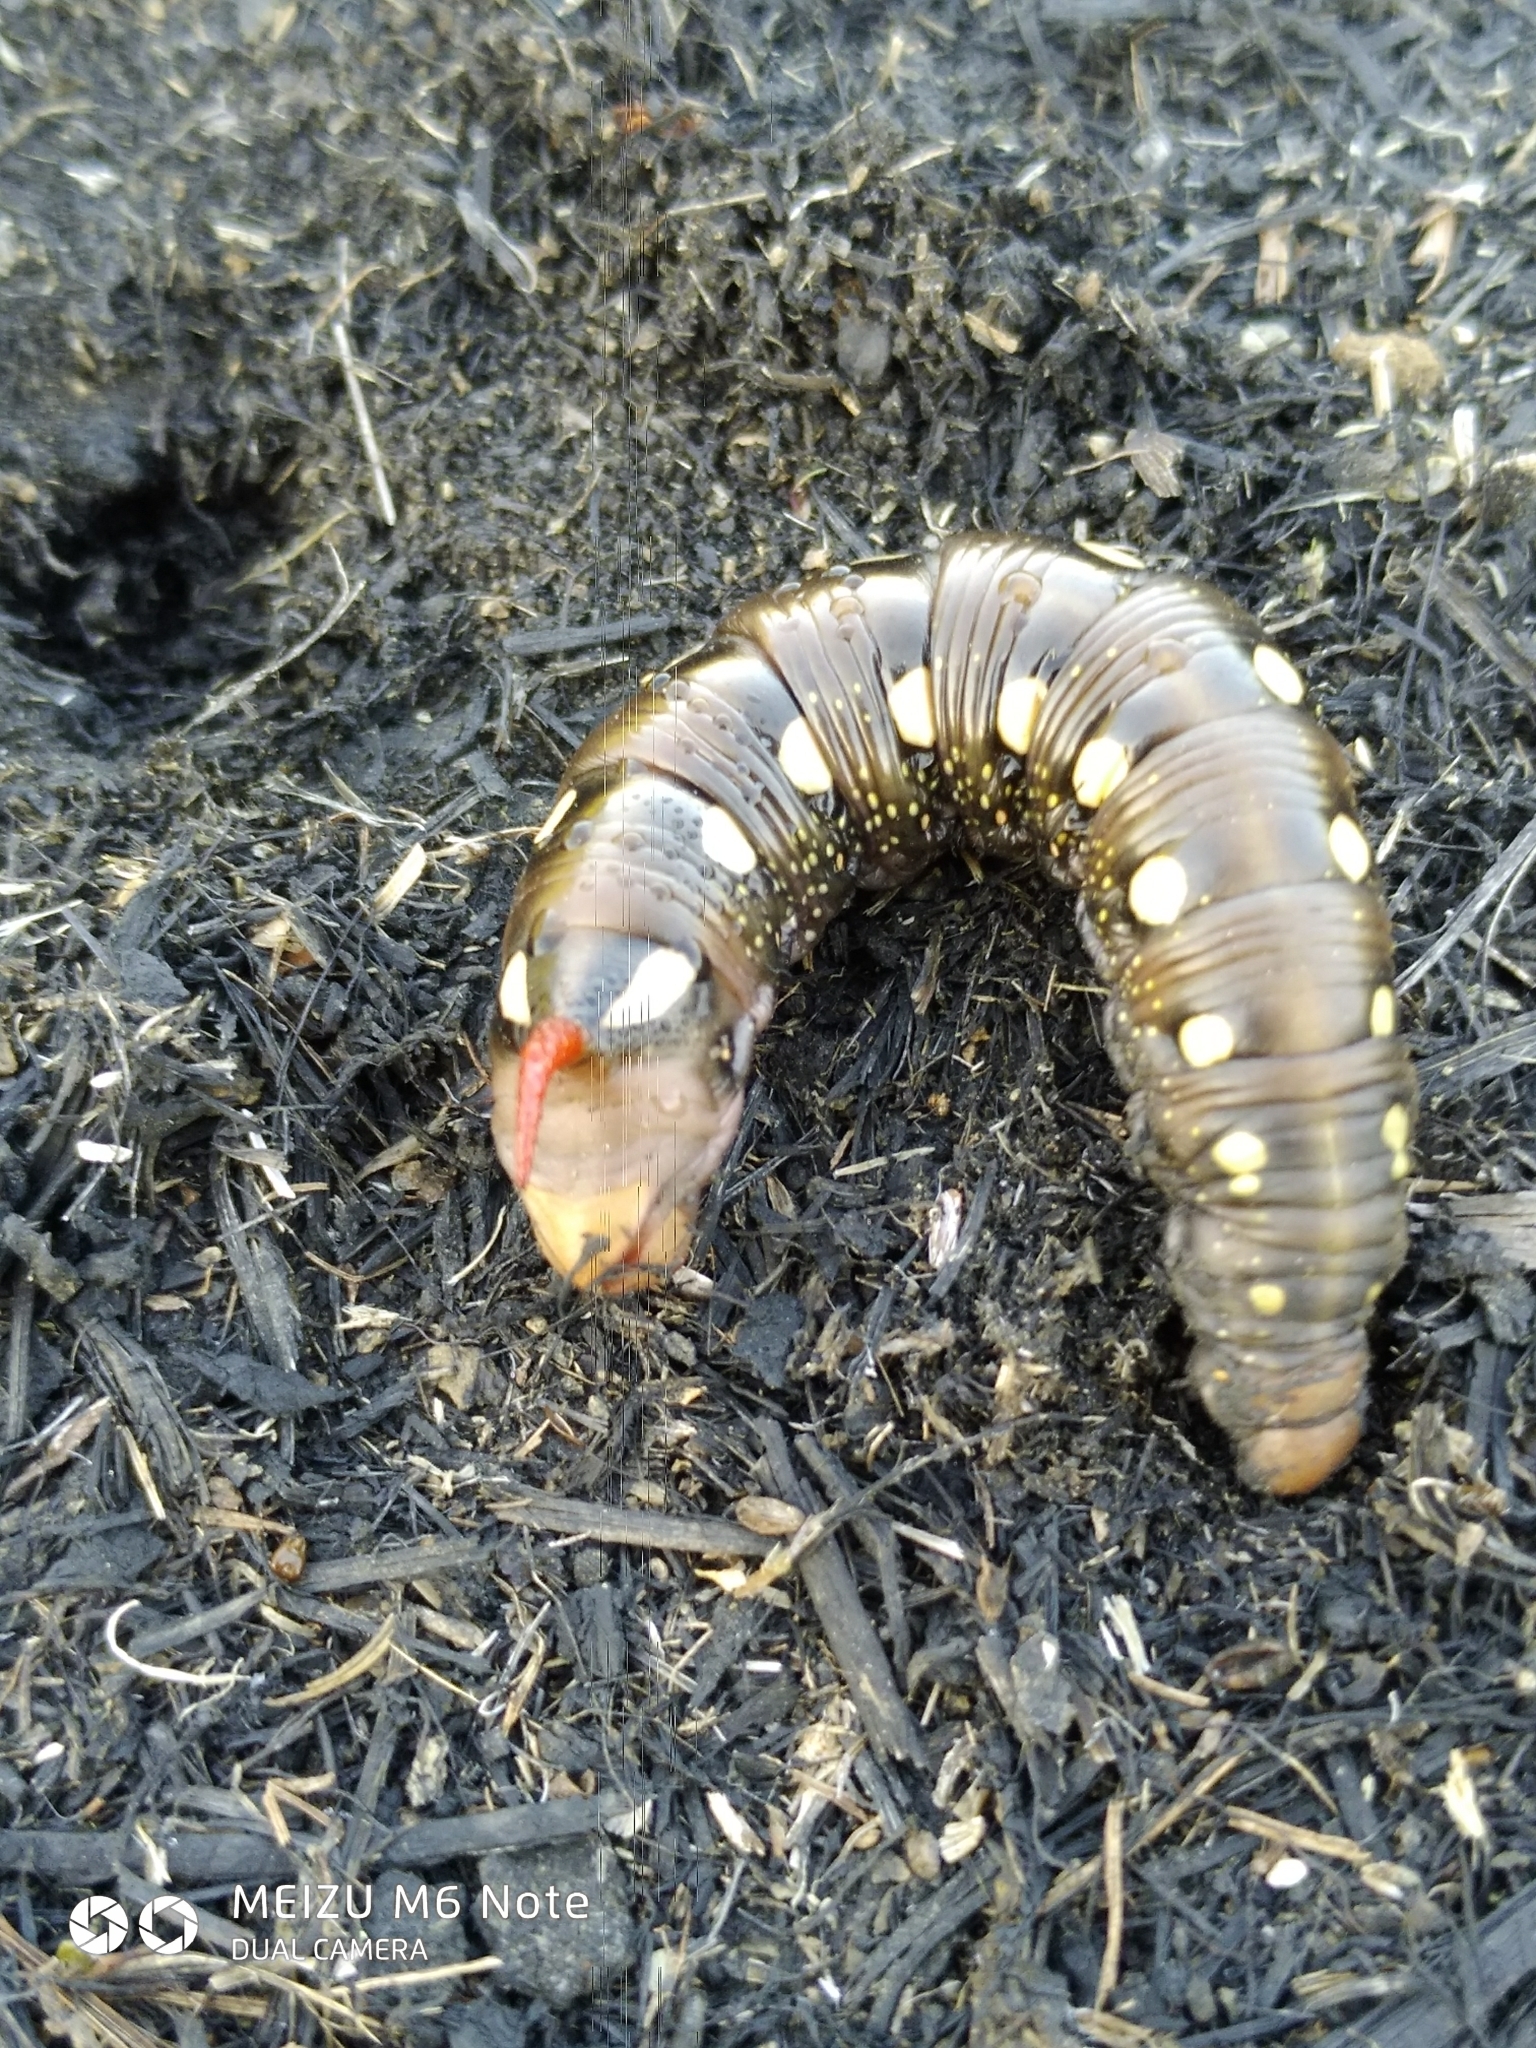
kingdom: Animalia
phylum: Arthropoda
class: Insecta
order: Lepidoptera
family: Sphingidae
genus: Hyles
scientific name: Hyles gallii
